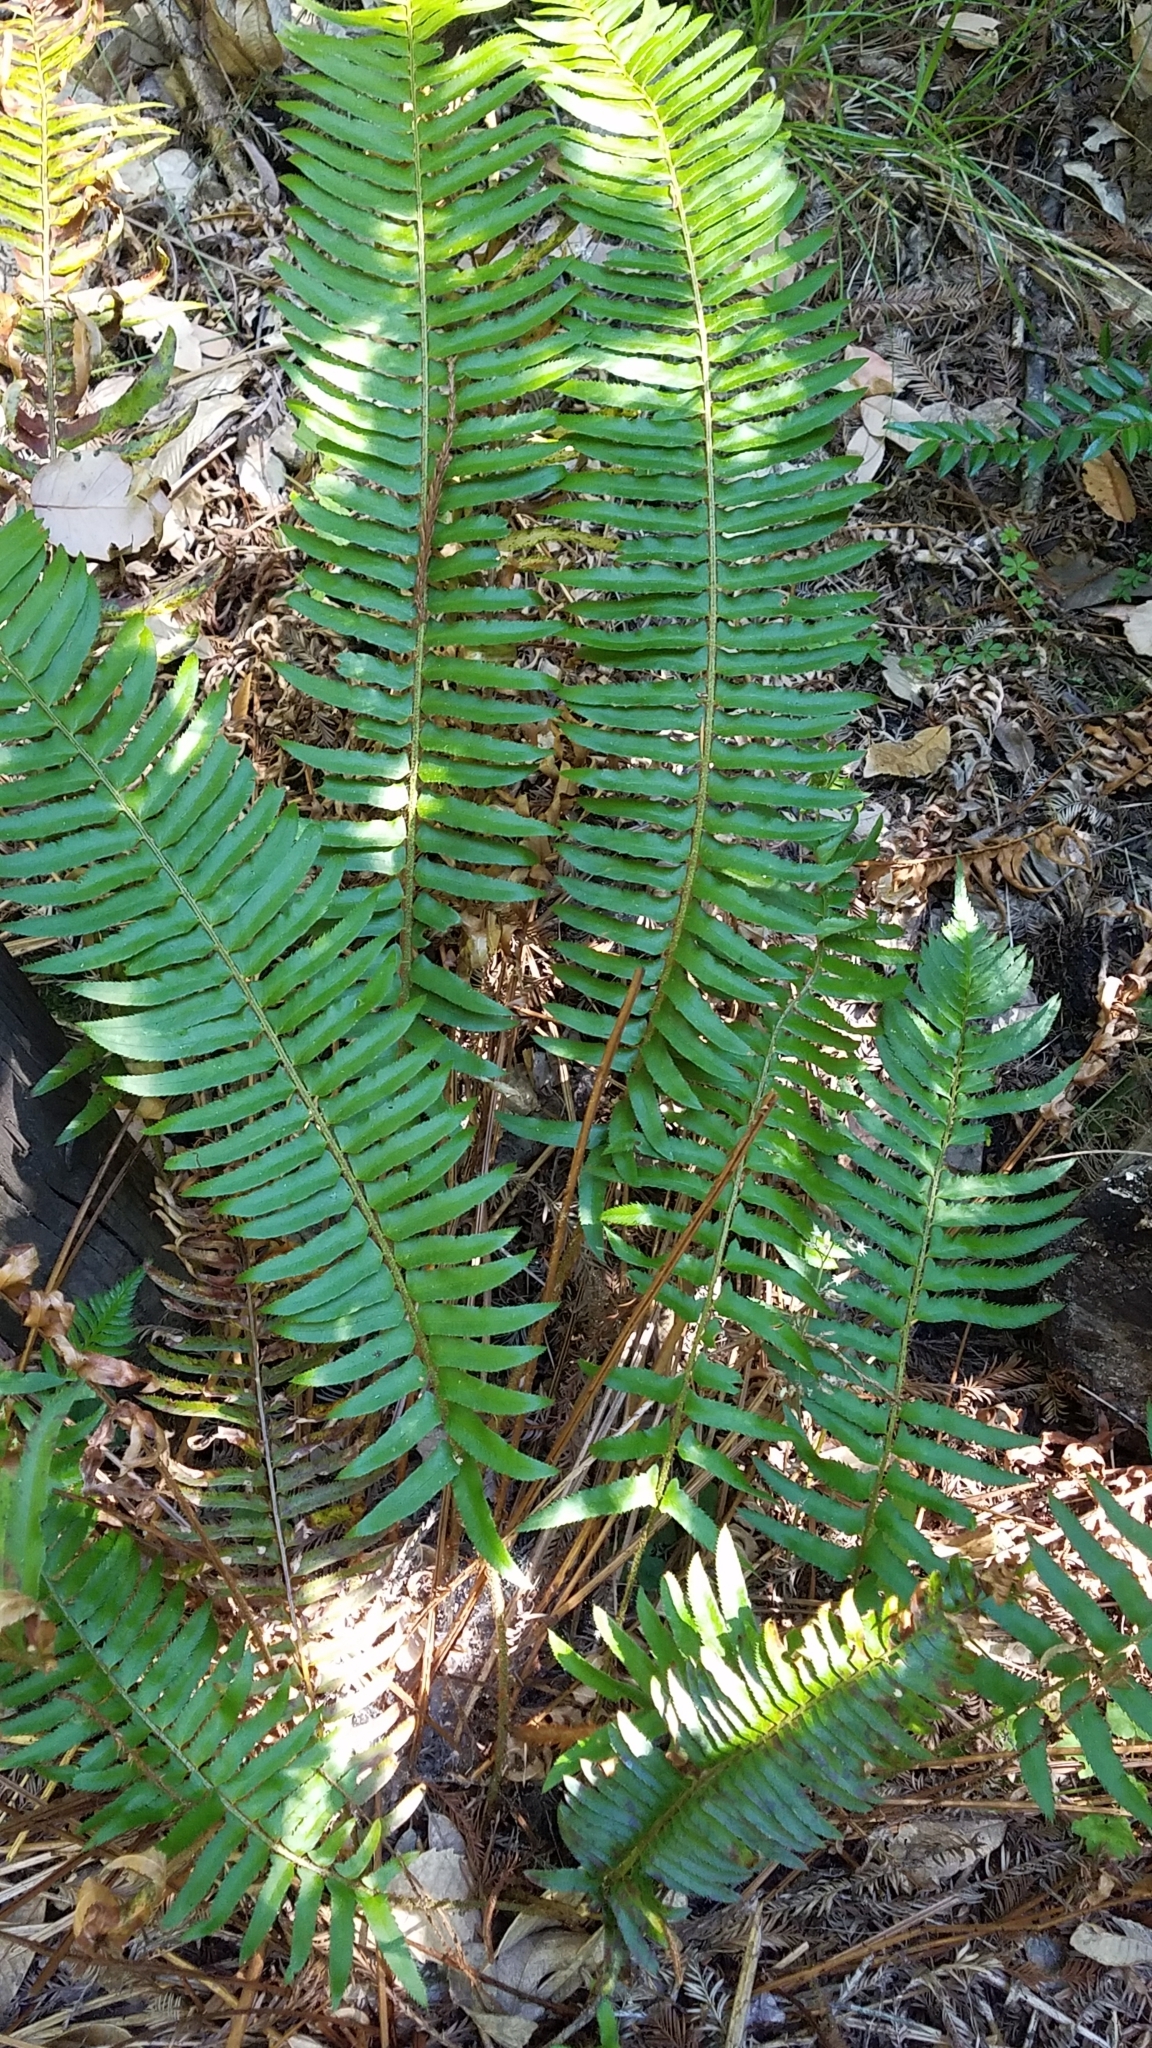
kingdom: Plantae
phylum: Tracheophyta
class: Polypodiopsida
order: Polypodiales
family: Dryopteridaceae
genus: Polystichum
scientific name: Polystichum munitum
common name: Western sword-fern
